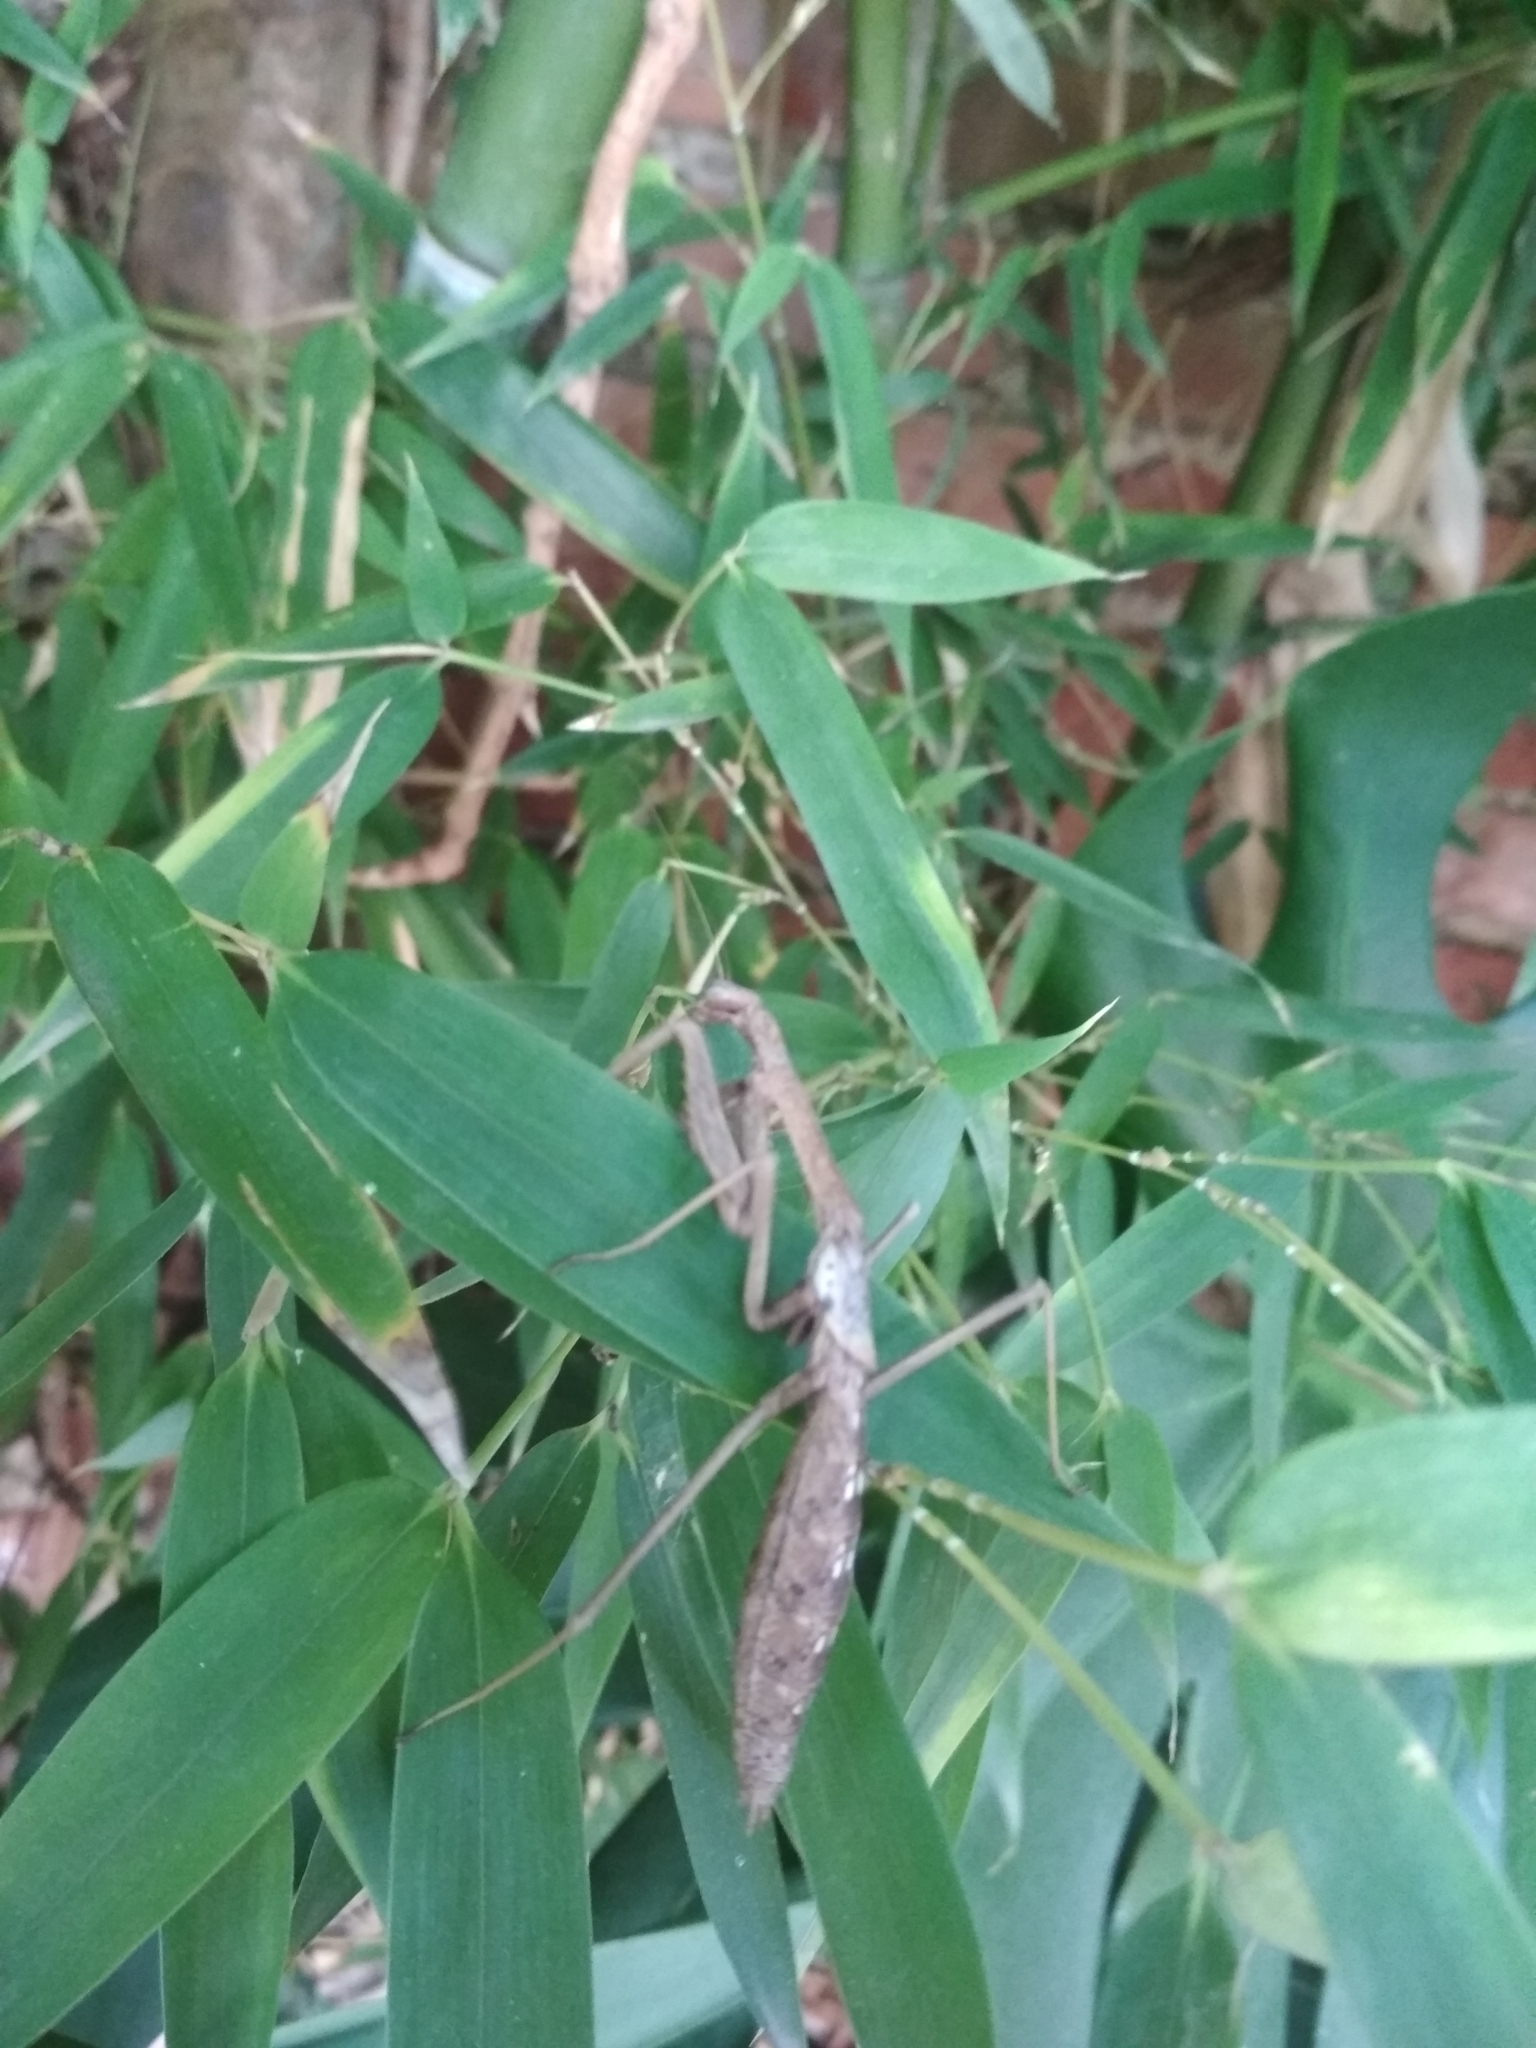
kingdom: Animalia
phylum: Arthropoda
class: Insecta
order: Mantodea
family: Coptopterygidae
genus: Coptopteryx
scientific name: Coptopteryx gayi
